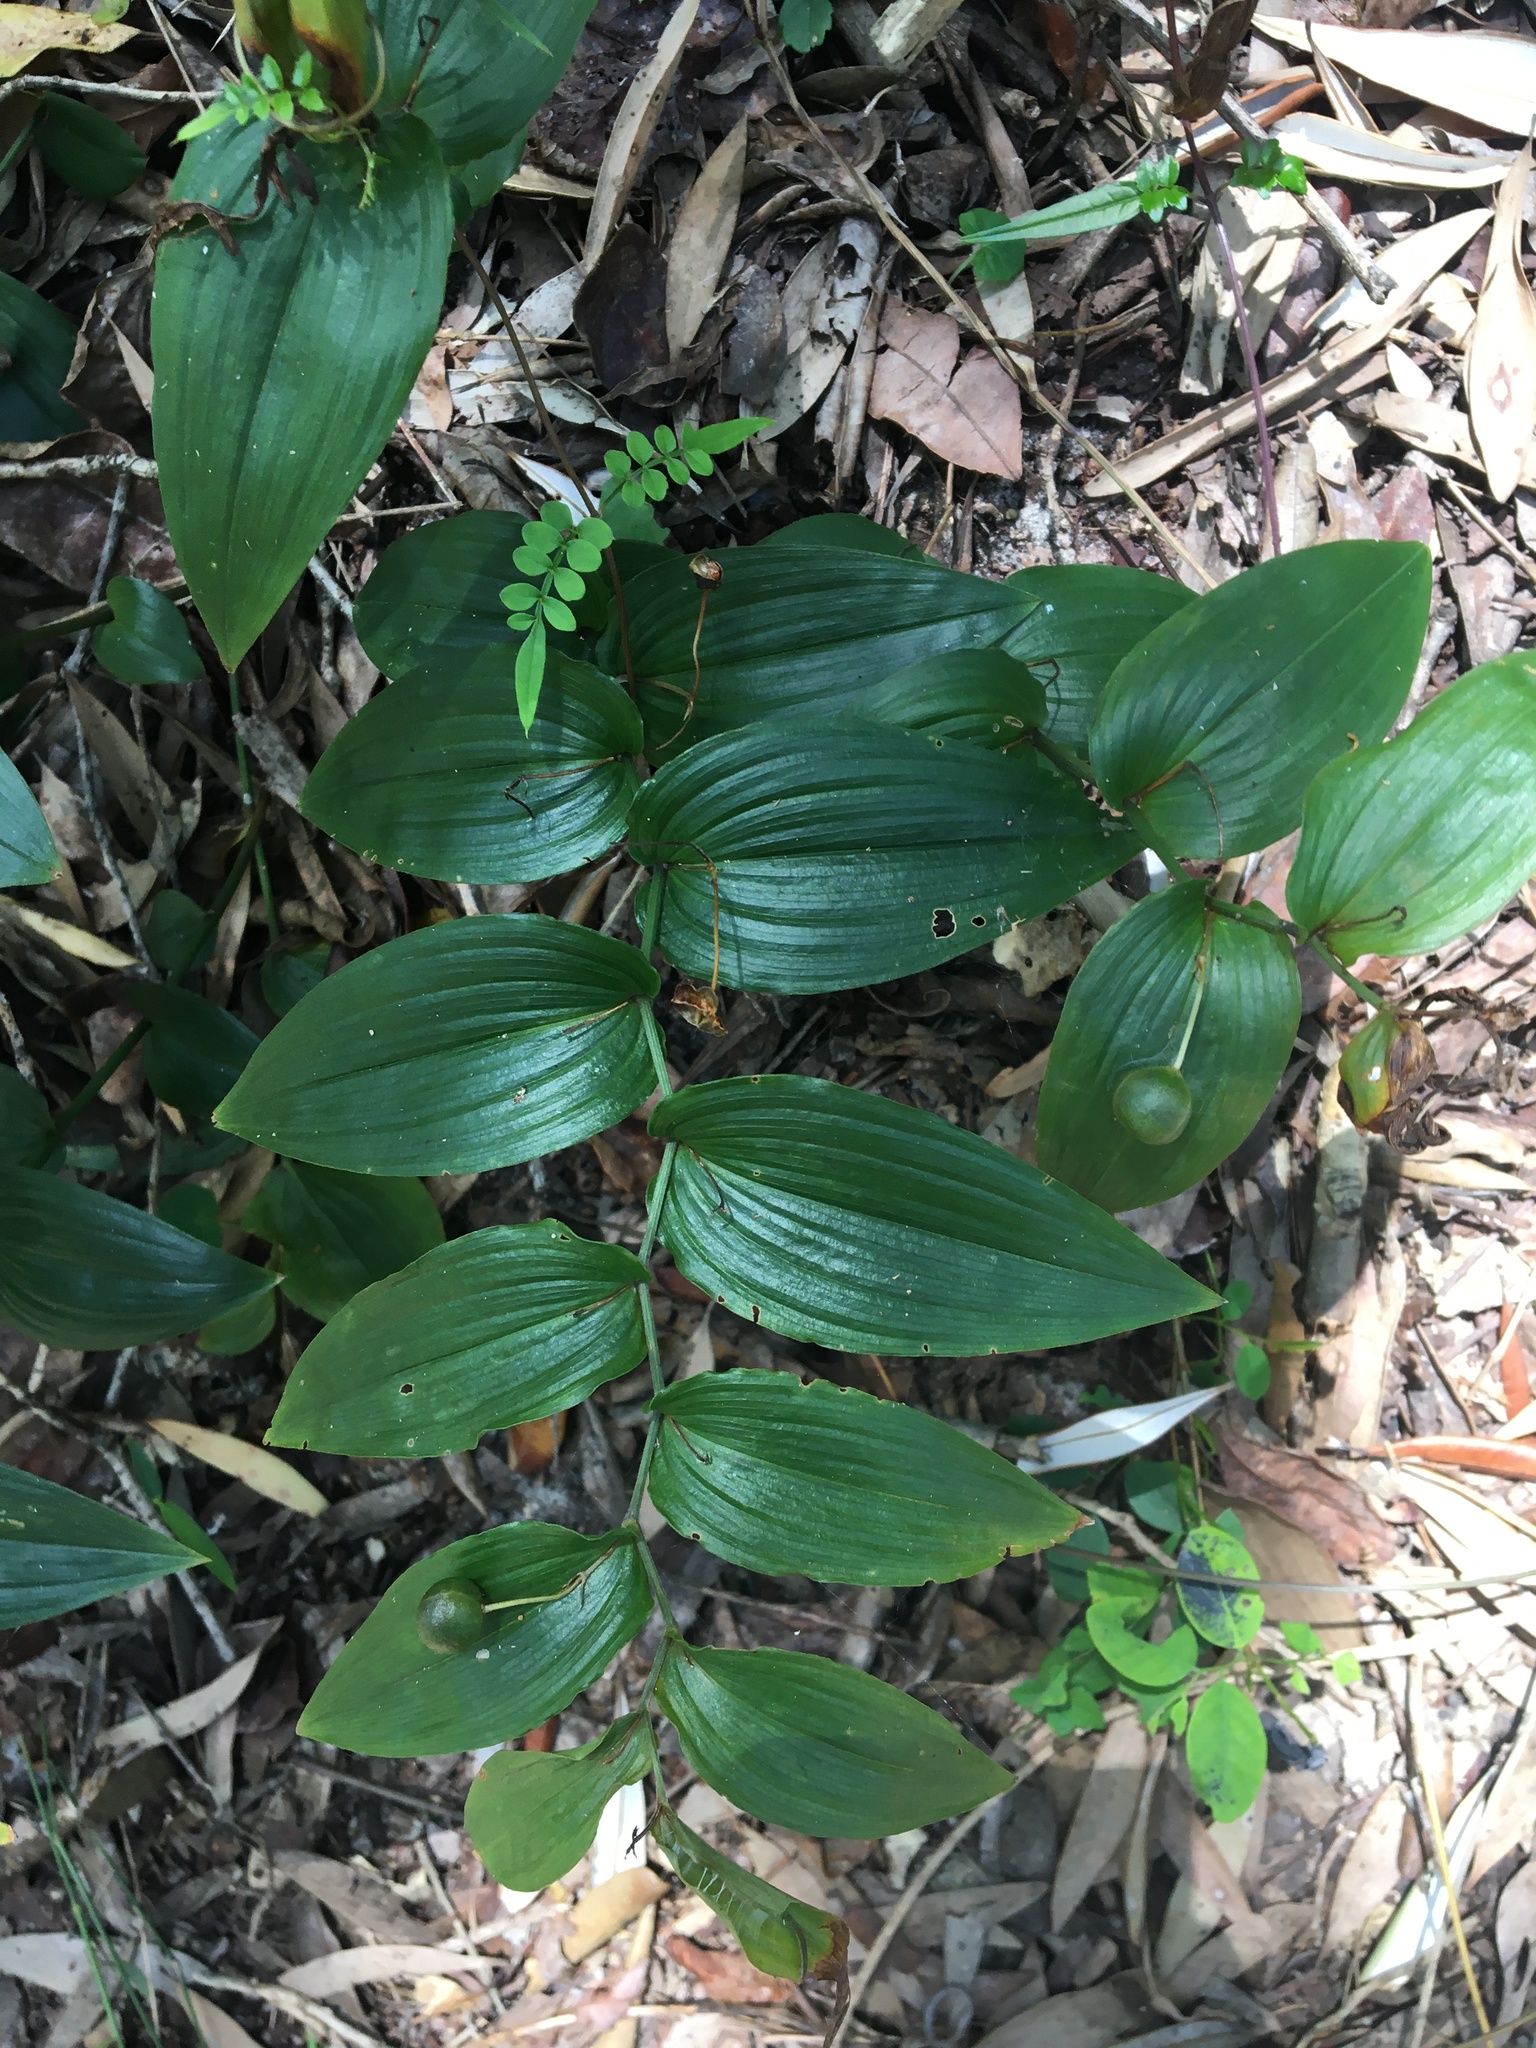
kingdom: Plantae
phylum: Tracheophyta
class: Liliopsida
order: Liliales
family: Colchicaceae
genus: Tripladenia
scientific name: Tripladenia cunninghamii
